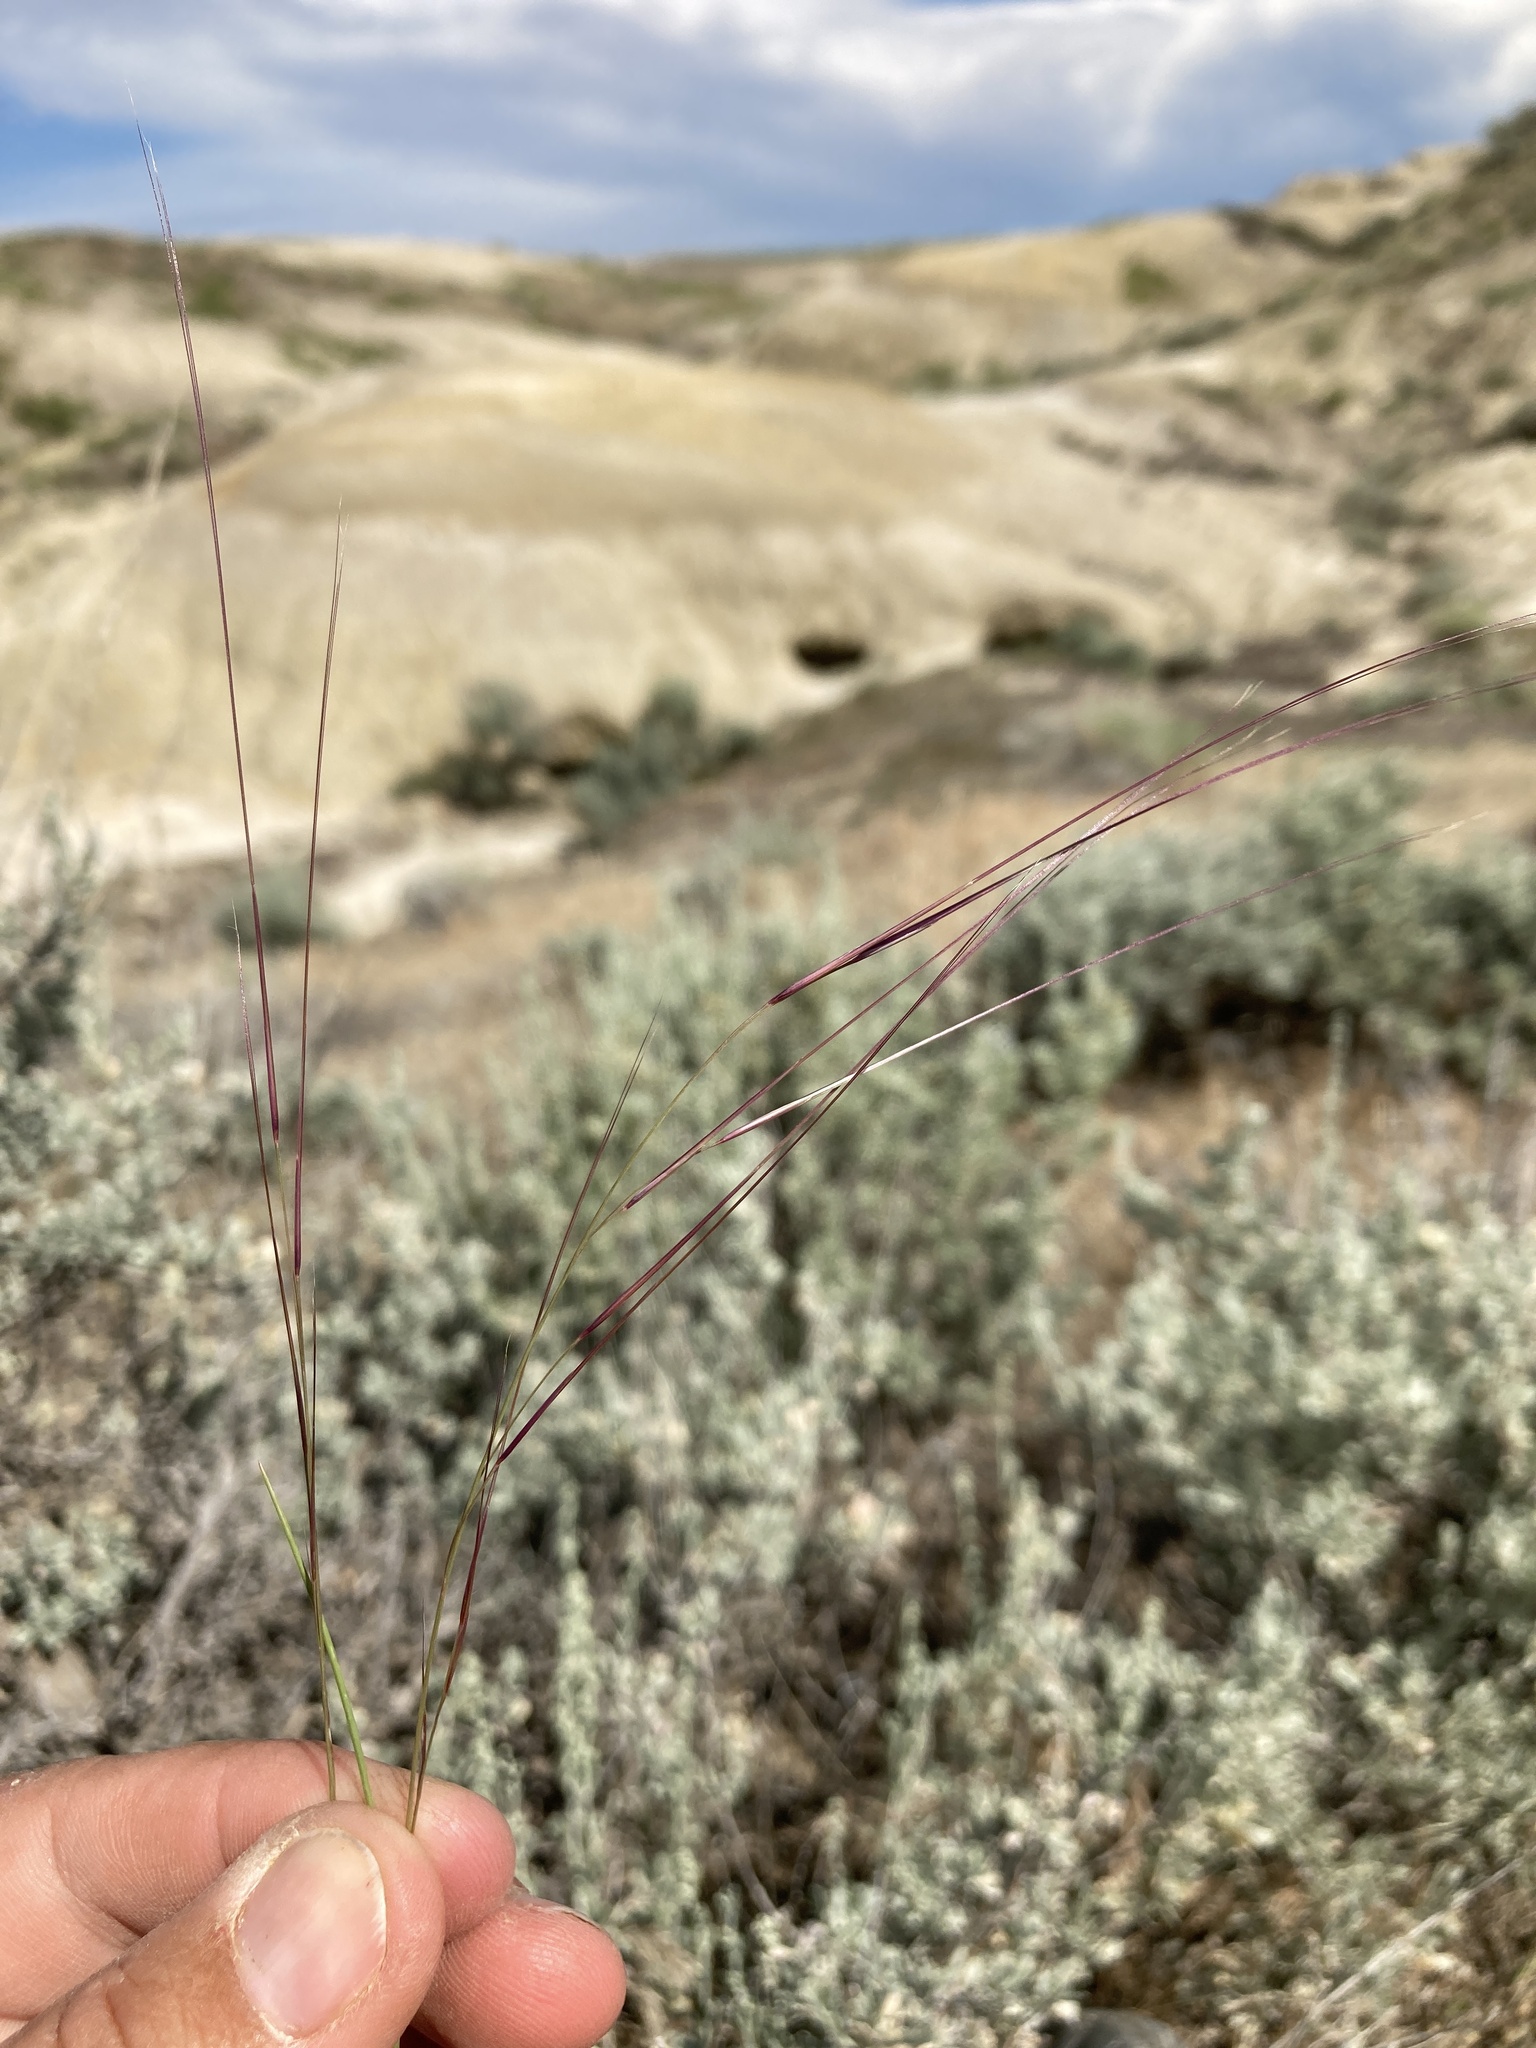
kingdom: Plantae
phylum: Tracheophyta
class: Liliopsida
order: Poales
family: Poaceae
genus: Aristida
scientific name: Aristida purpurea
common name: Purple threeawn
